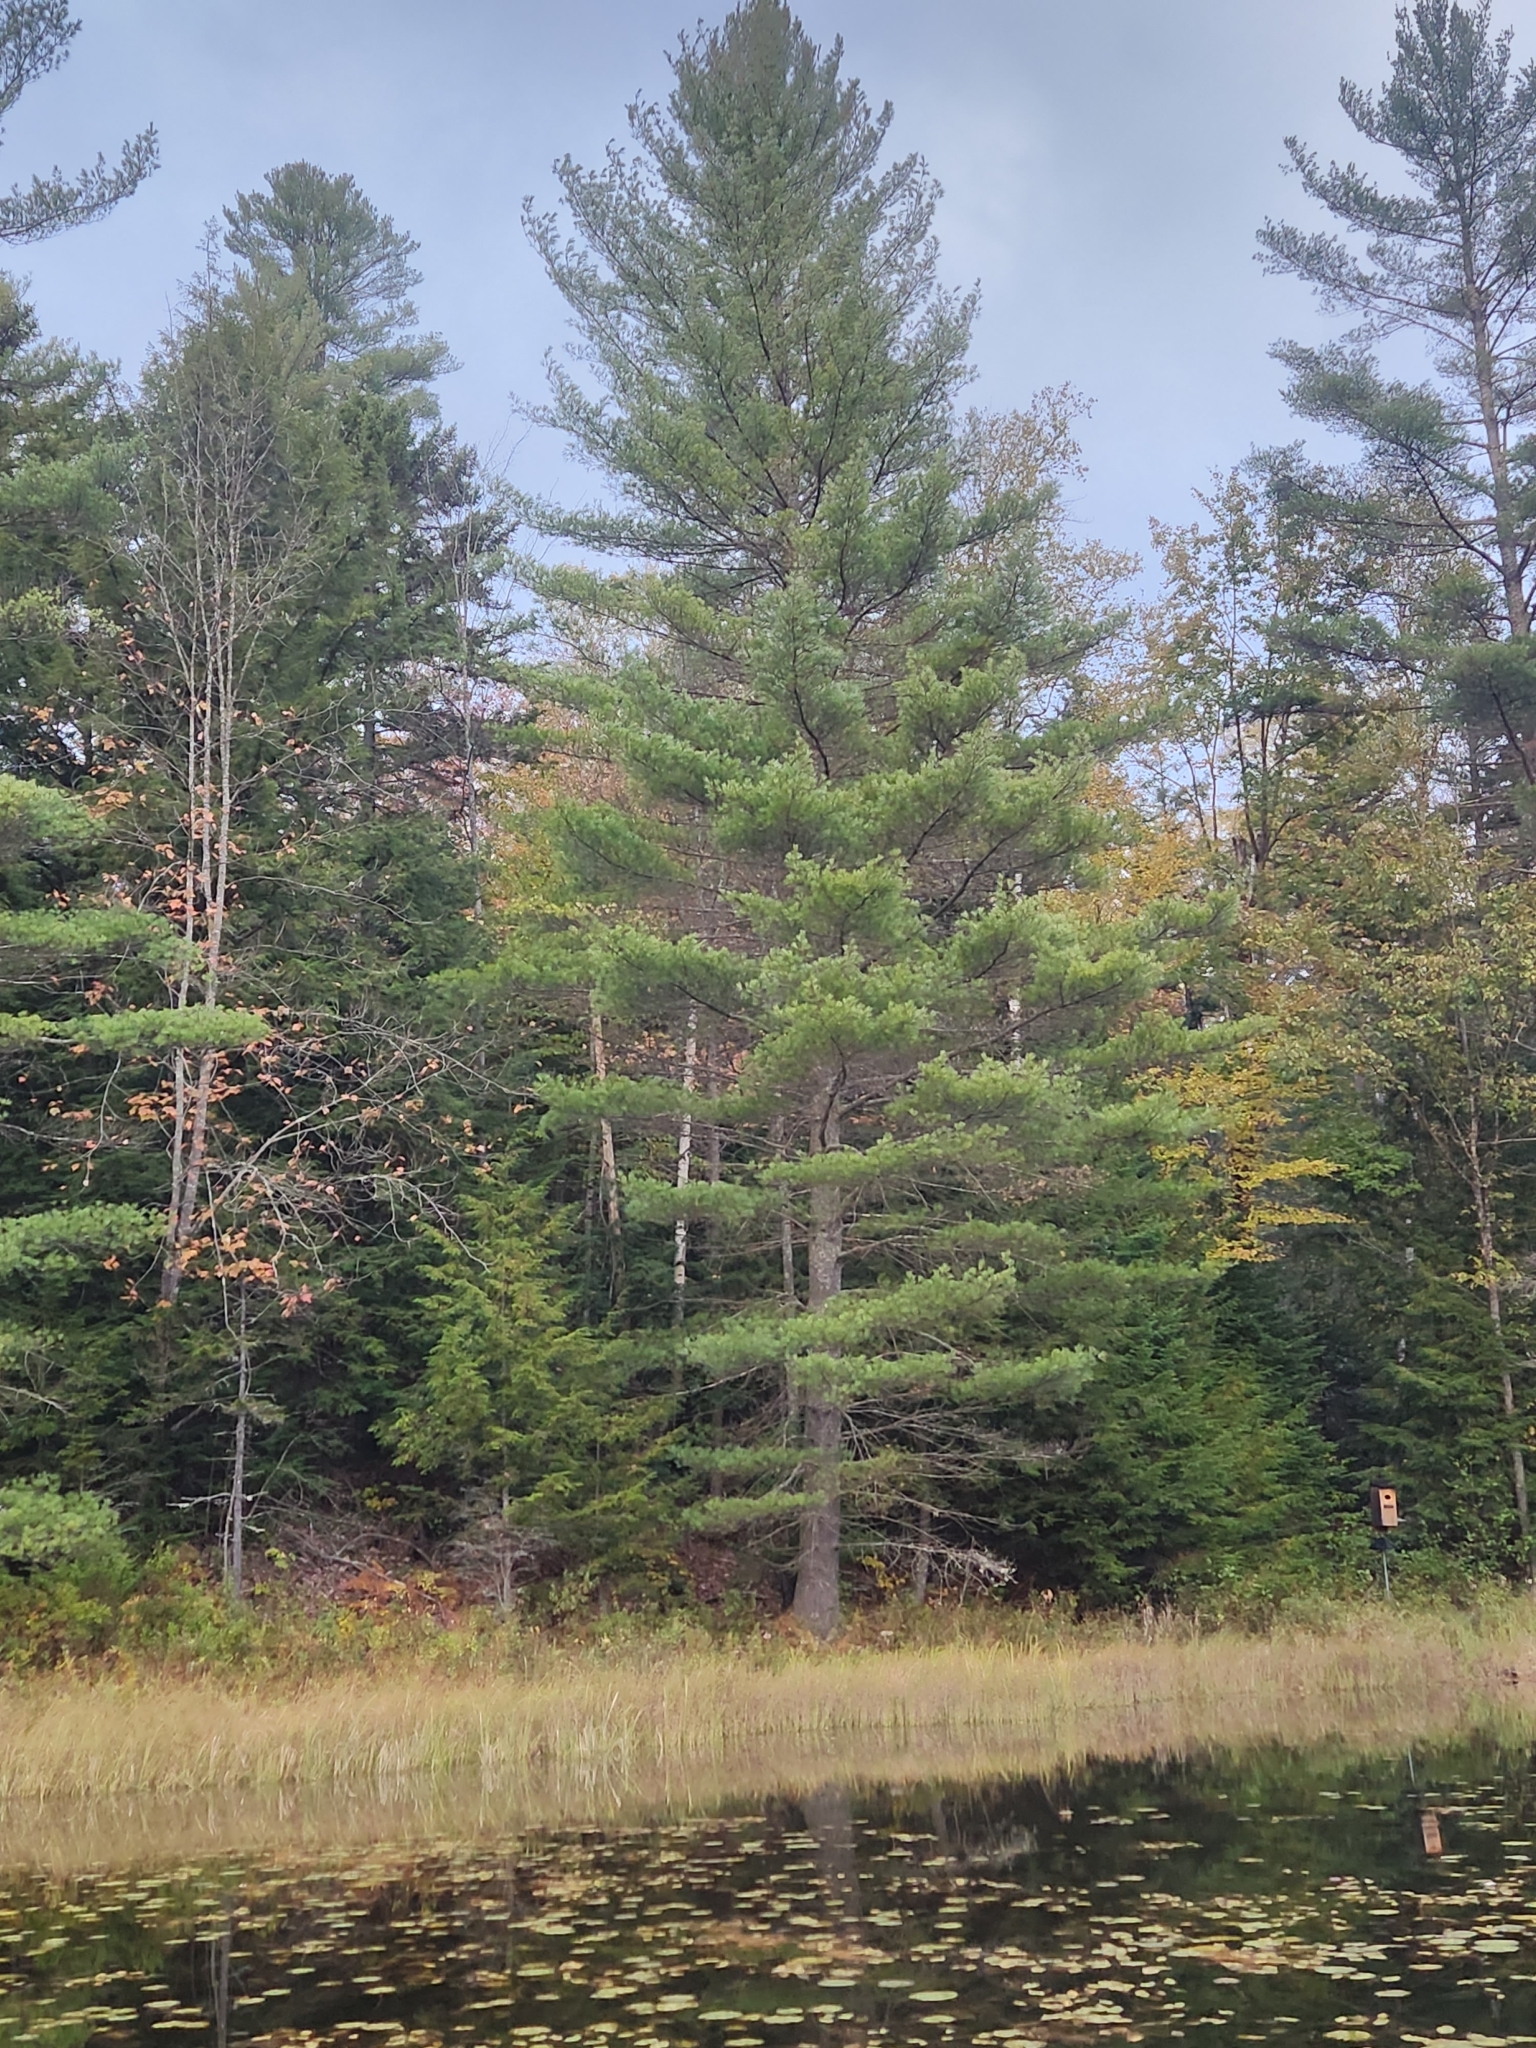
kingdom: Plantae
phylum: Tracheophyta
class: Pinopsida
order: Pinales
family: Pinaceae
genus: Pinus
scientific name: Pinus strobus
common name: Weymouth pine
